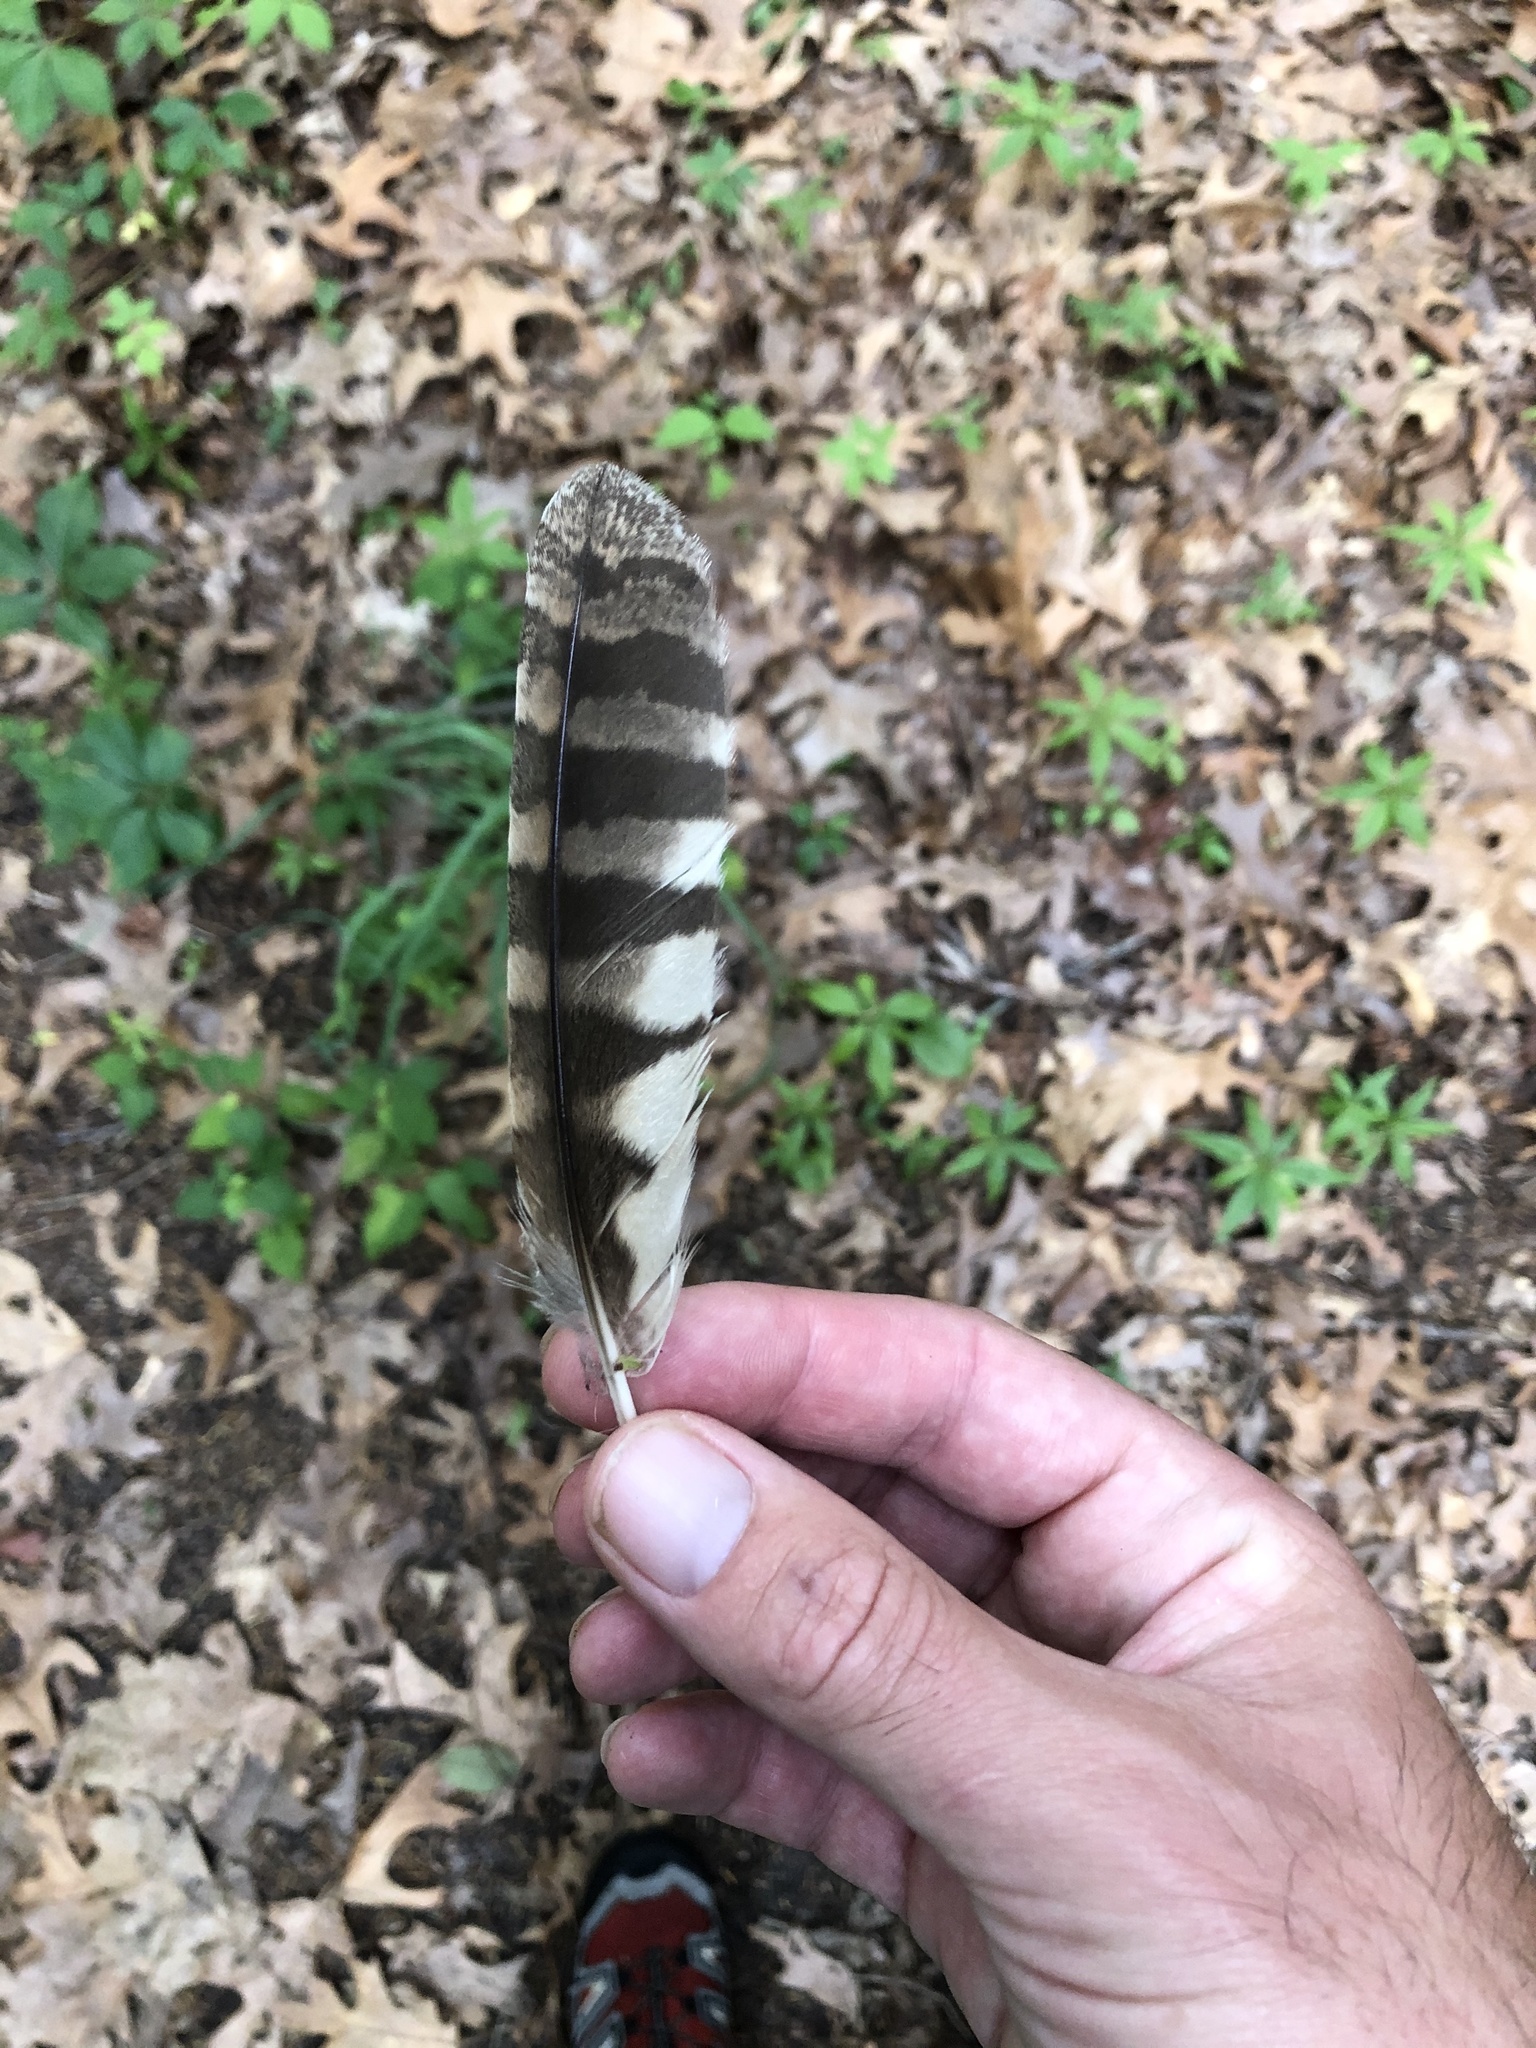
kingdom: Animalia
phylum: Chordata
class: Aves
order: Strigiformes
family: Strigidae
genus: Megascops
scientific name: Megascops asio
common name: Eastern screech-owl
